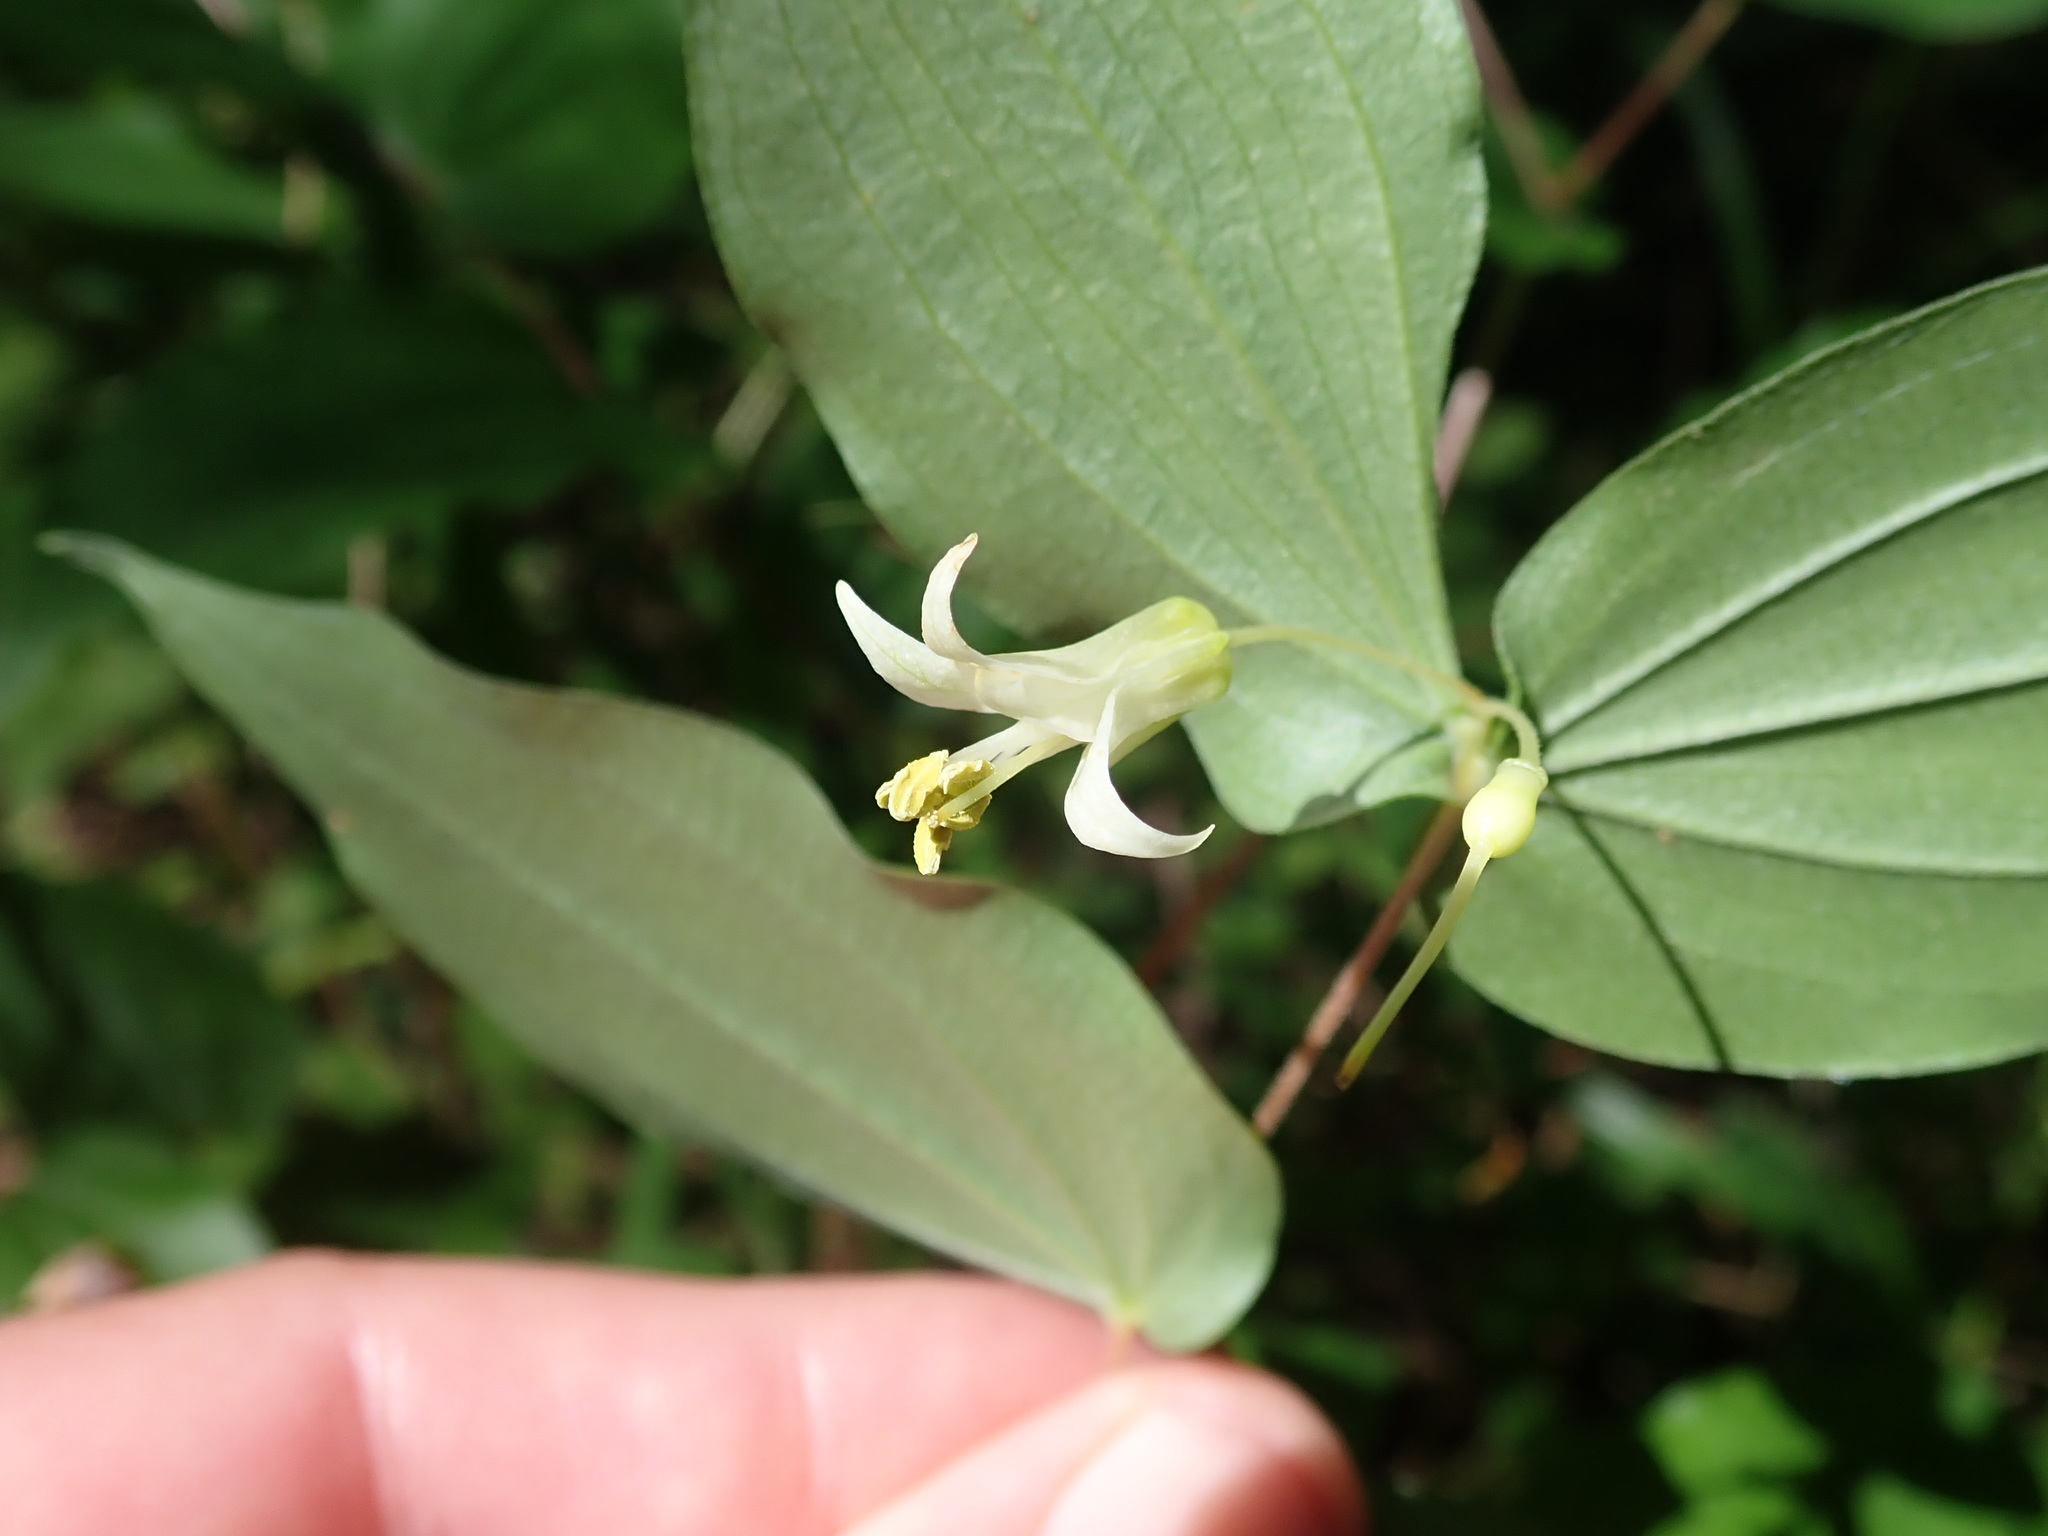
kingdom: Plantae
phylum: Tracheophyta
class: Liliopsida
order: Liliales
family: Liliaceae
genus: Prosartes
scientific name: Prosartes hookeri
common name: Fairy-bells
